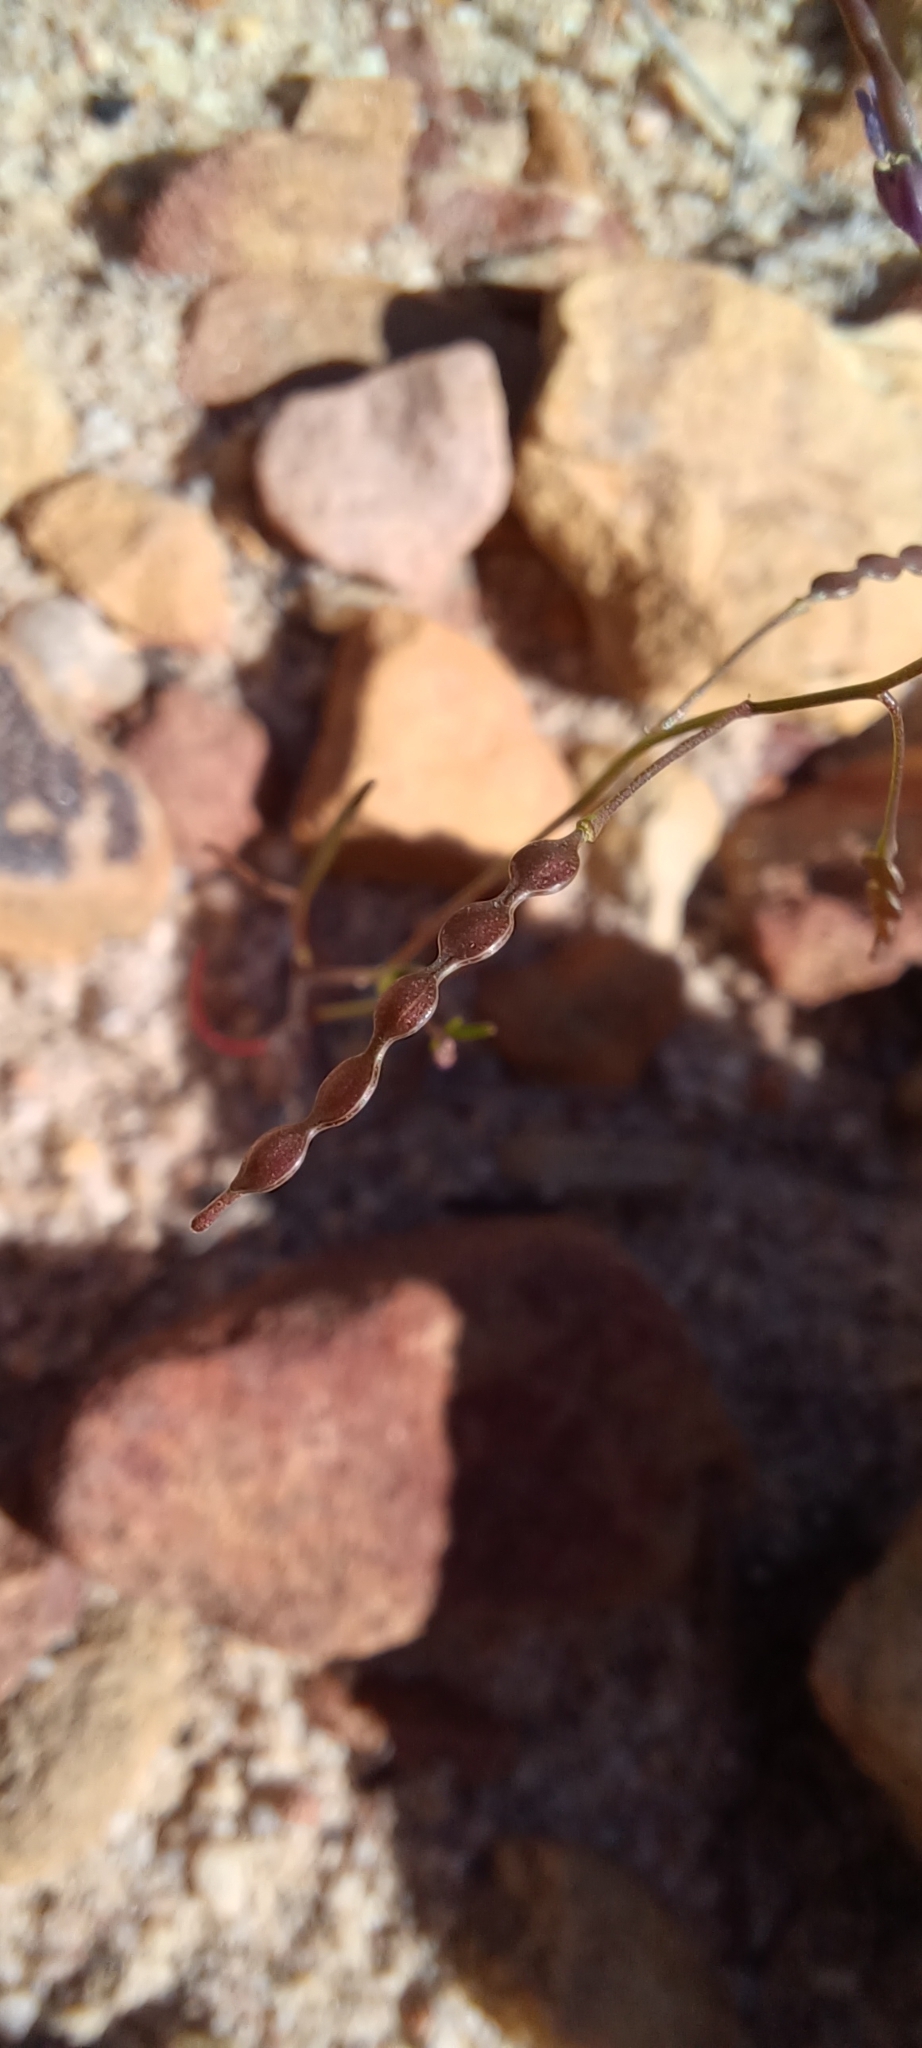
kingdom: Plantae
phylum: Tracheophyta
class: Magnoliopsida
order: Brassicales
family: Brassicaceae
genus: Heliophila
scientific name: Heliophila pinnata
